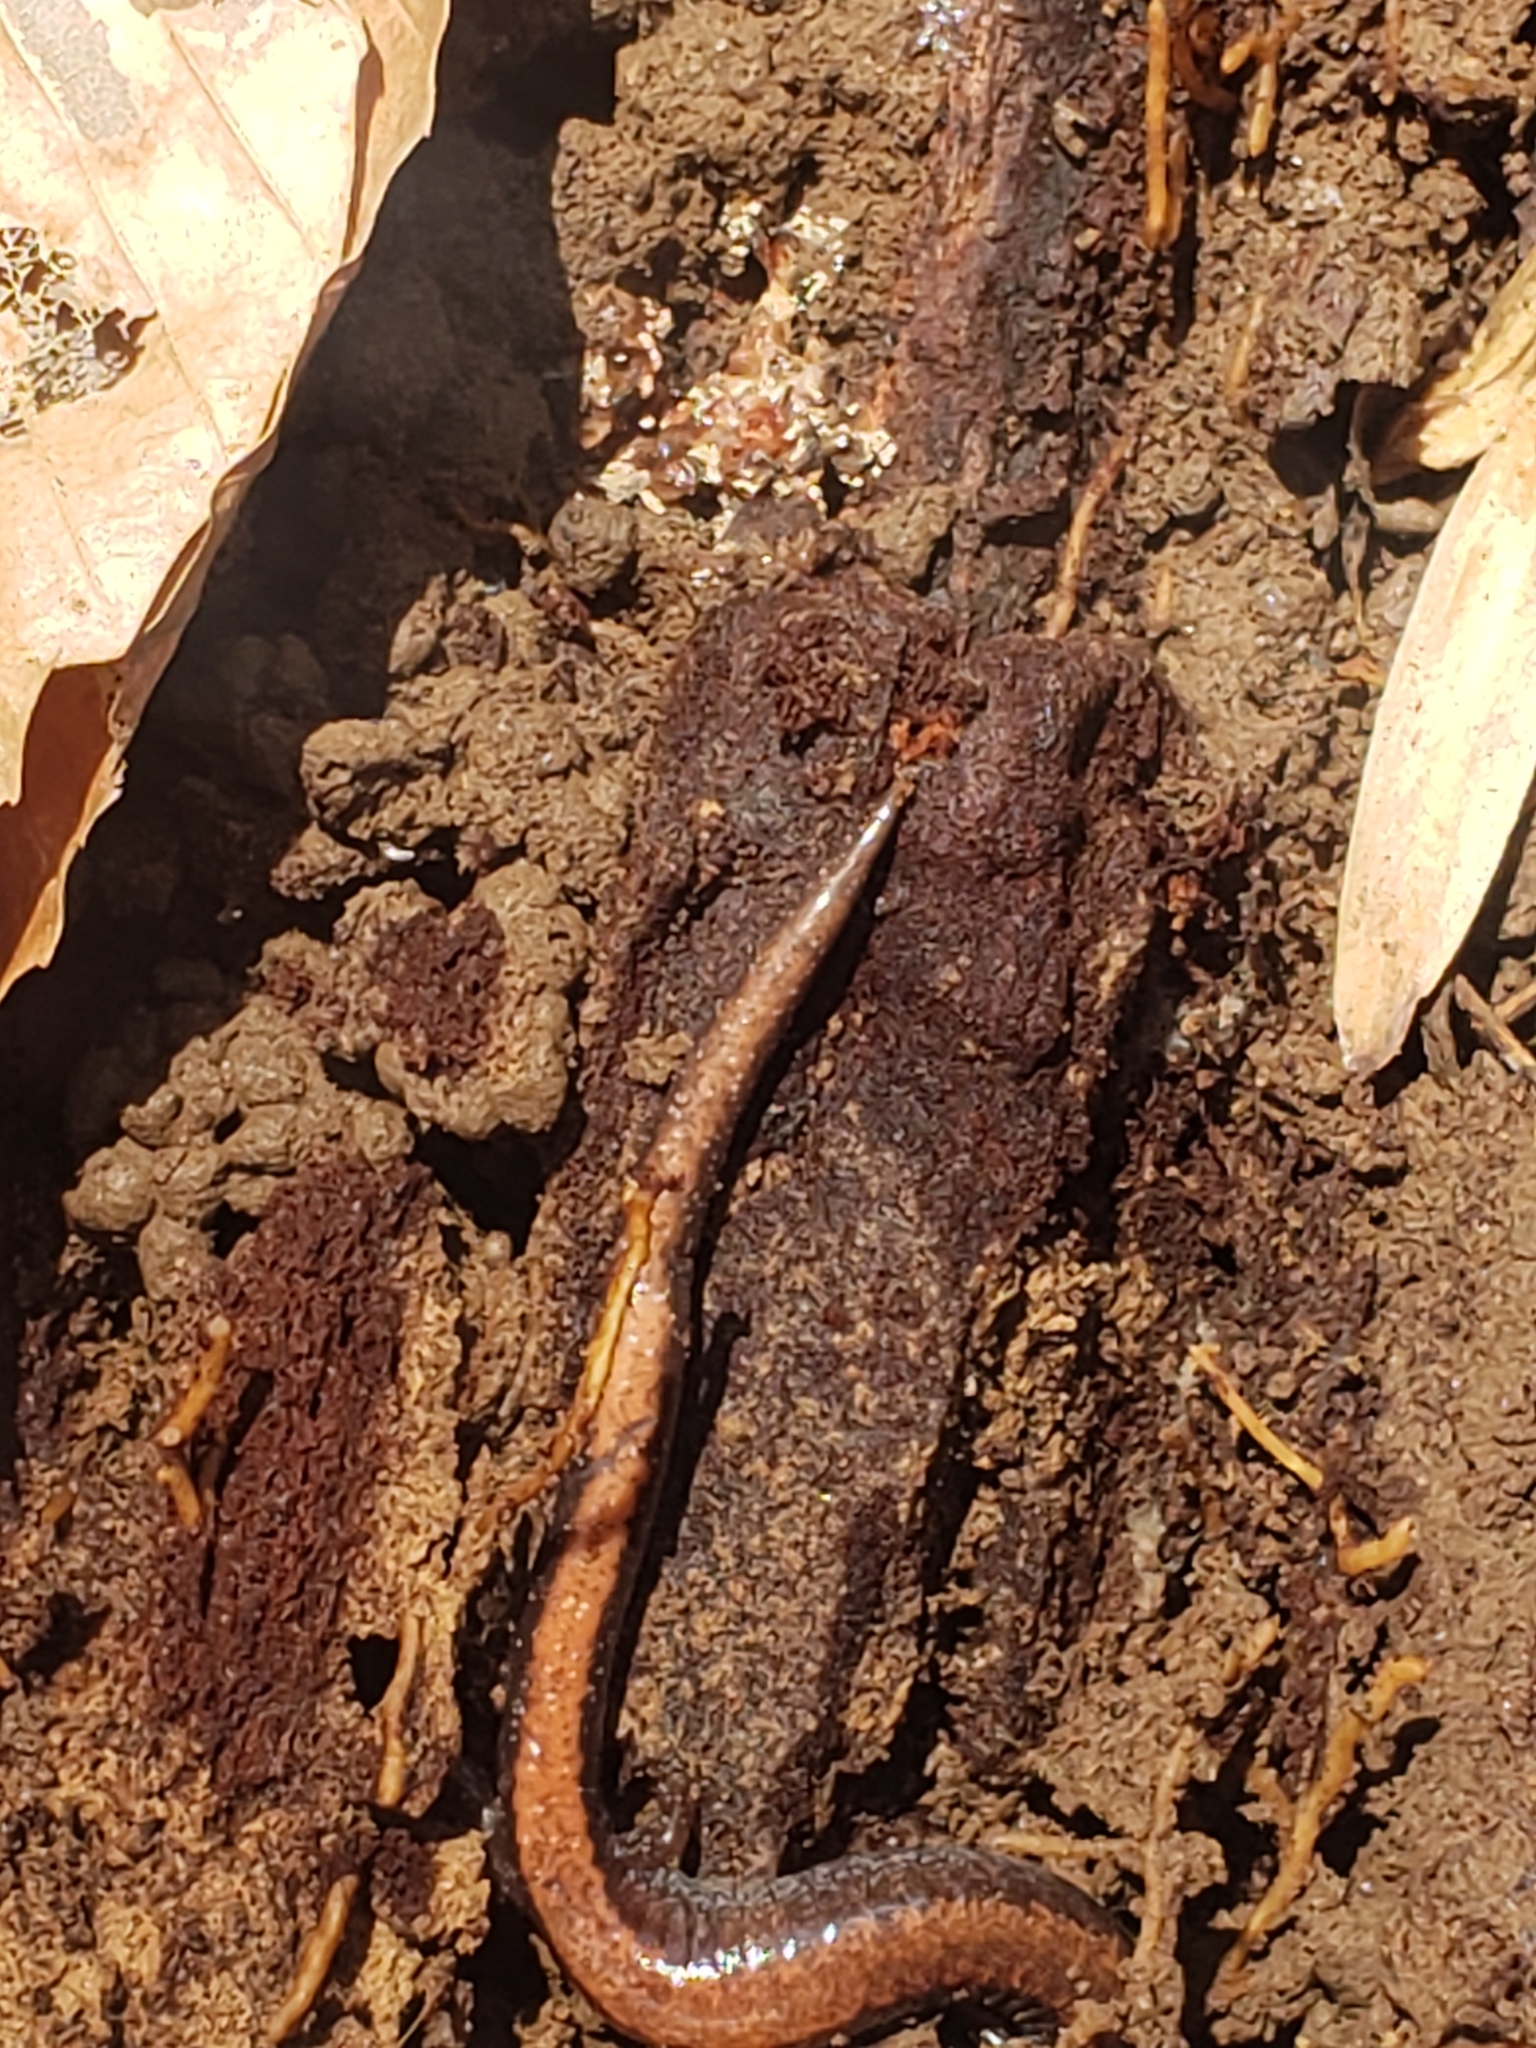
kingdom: Animalia
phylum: Chordata
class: Amphibia
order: Caudata
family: Plethodontidae
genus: Plethodon
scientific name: Plethodon cinereus
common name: Redback salamander
